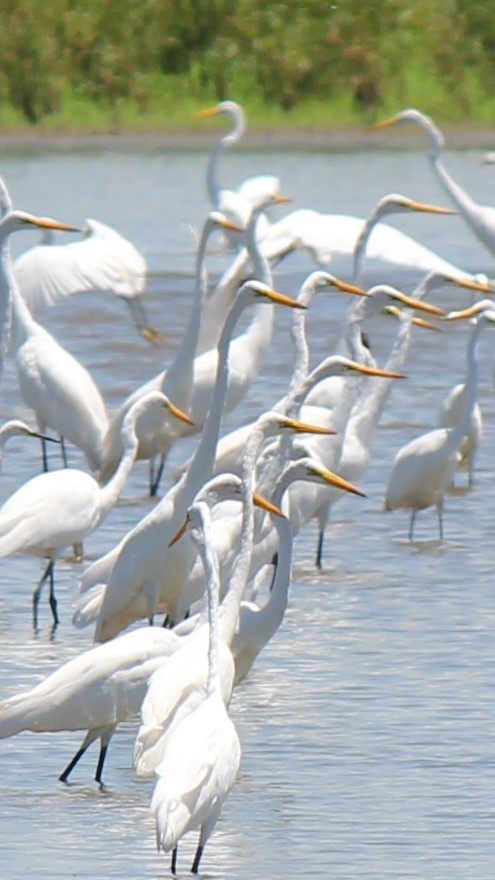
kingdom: Animalia
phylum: Chordata
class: Aves
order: Pelecaniformes
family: Ardeidae
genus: Ardea
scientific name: Ardea alba
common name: Great egret
